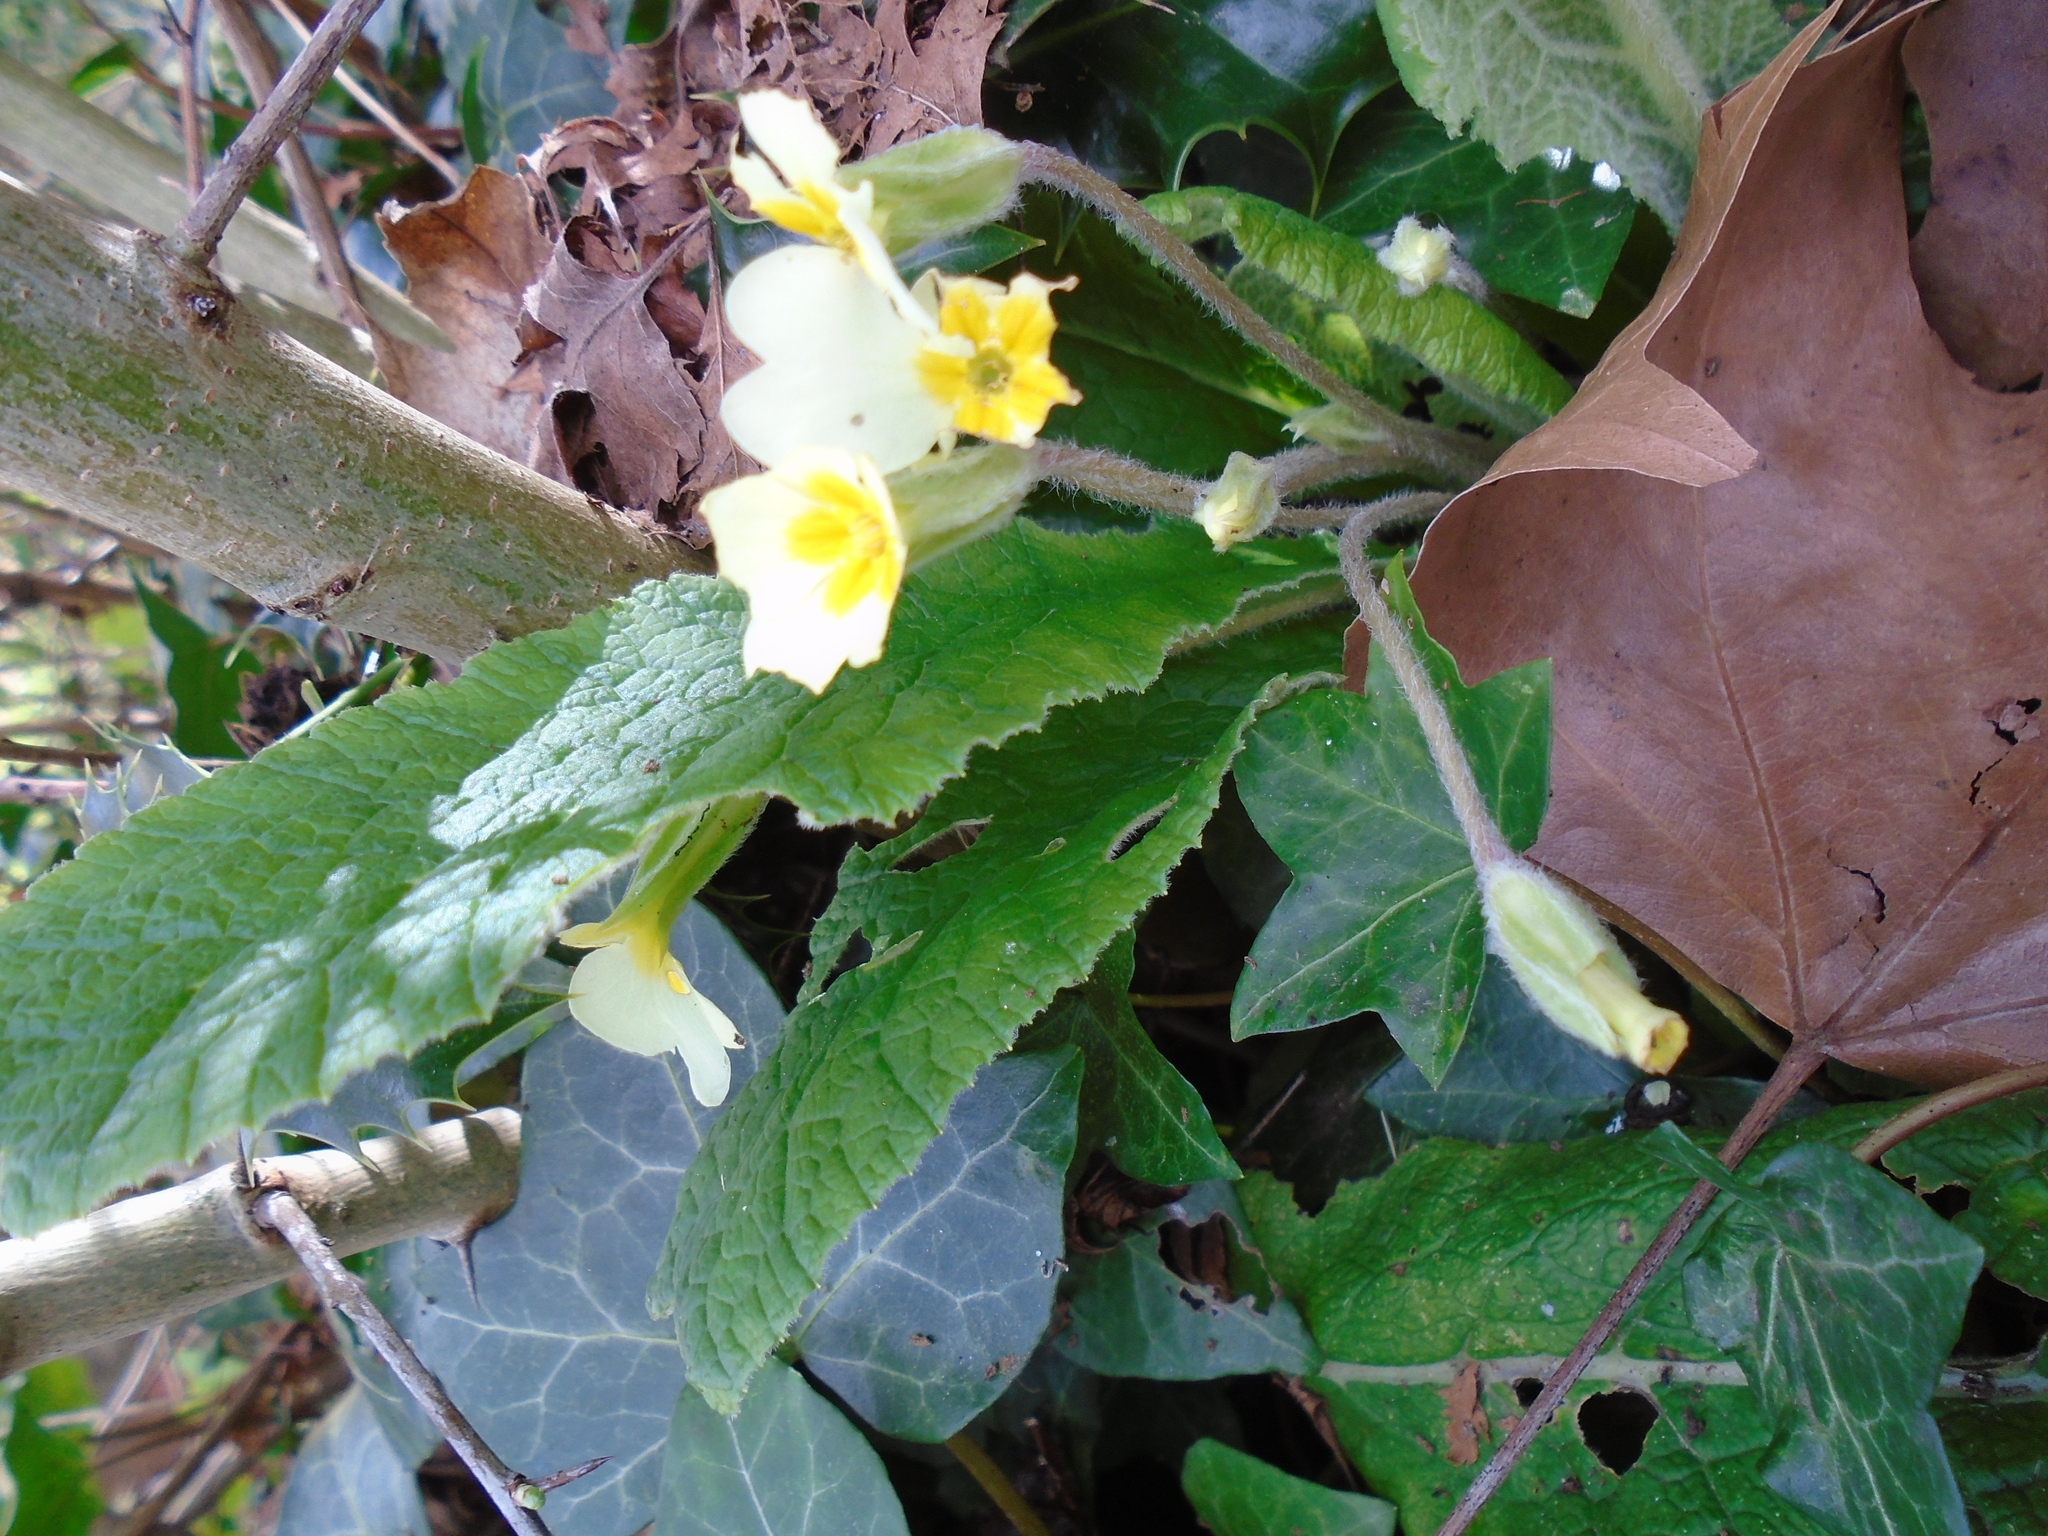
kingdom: Plantae
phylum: Tracheophyta
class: Magnoliopsida
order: Ericales
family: Primulaceae
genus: Primula
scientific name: Primula vulgaris
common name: Primrose
